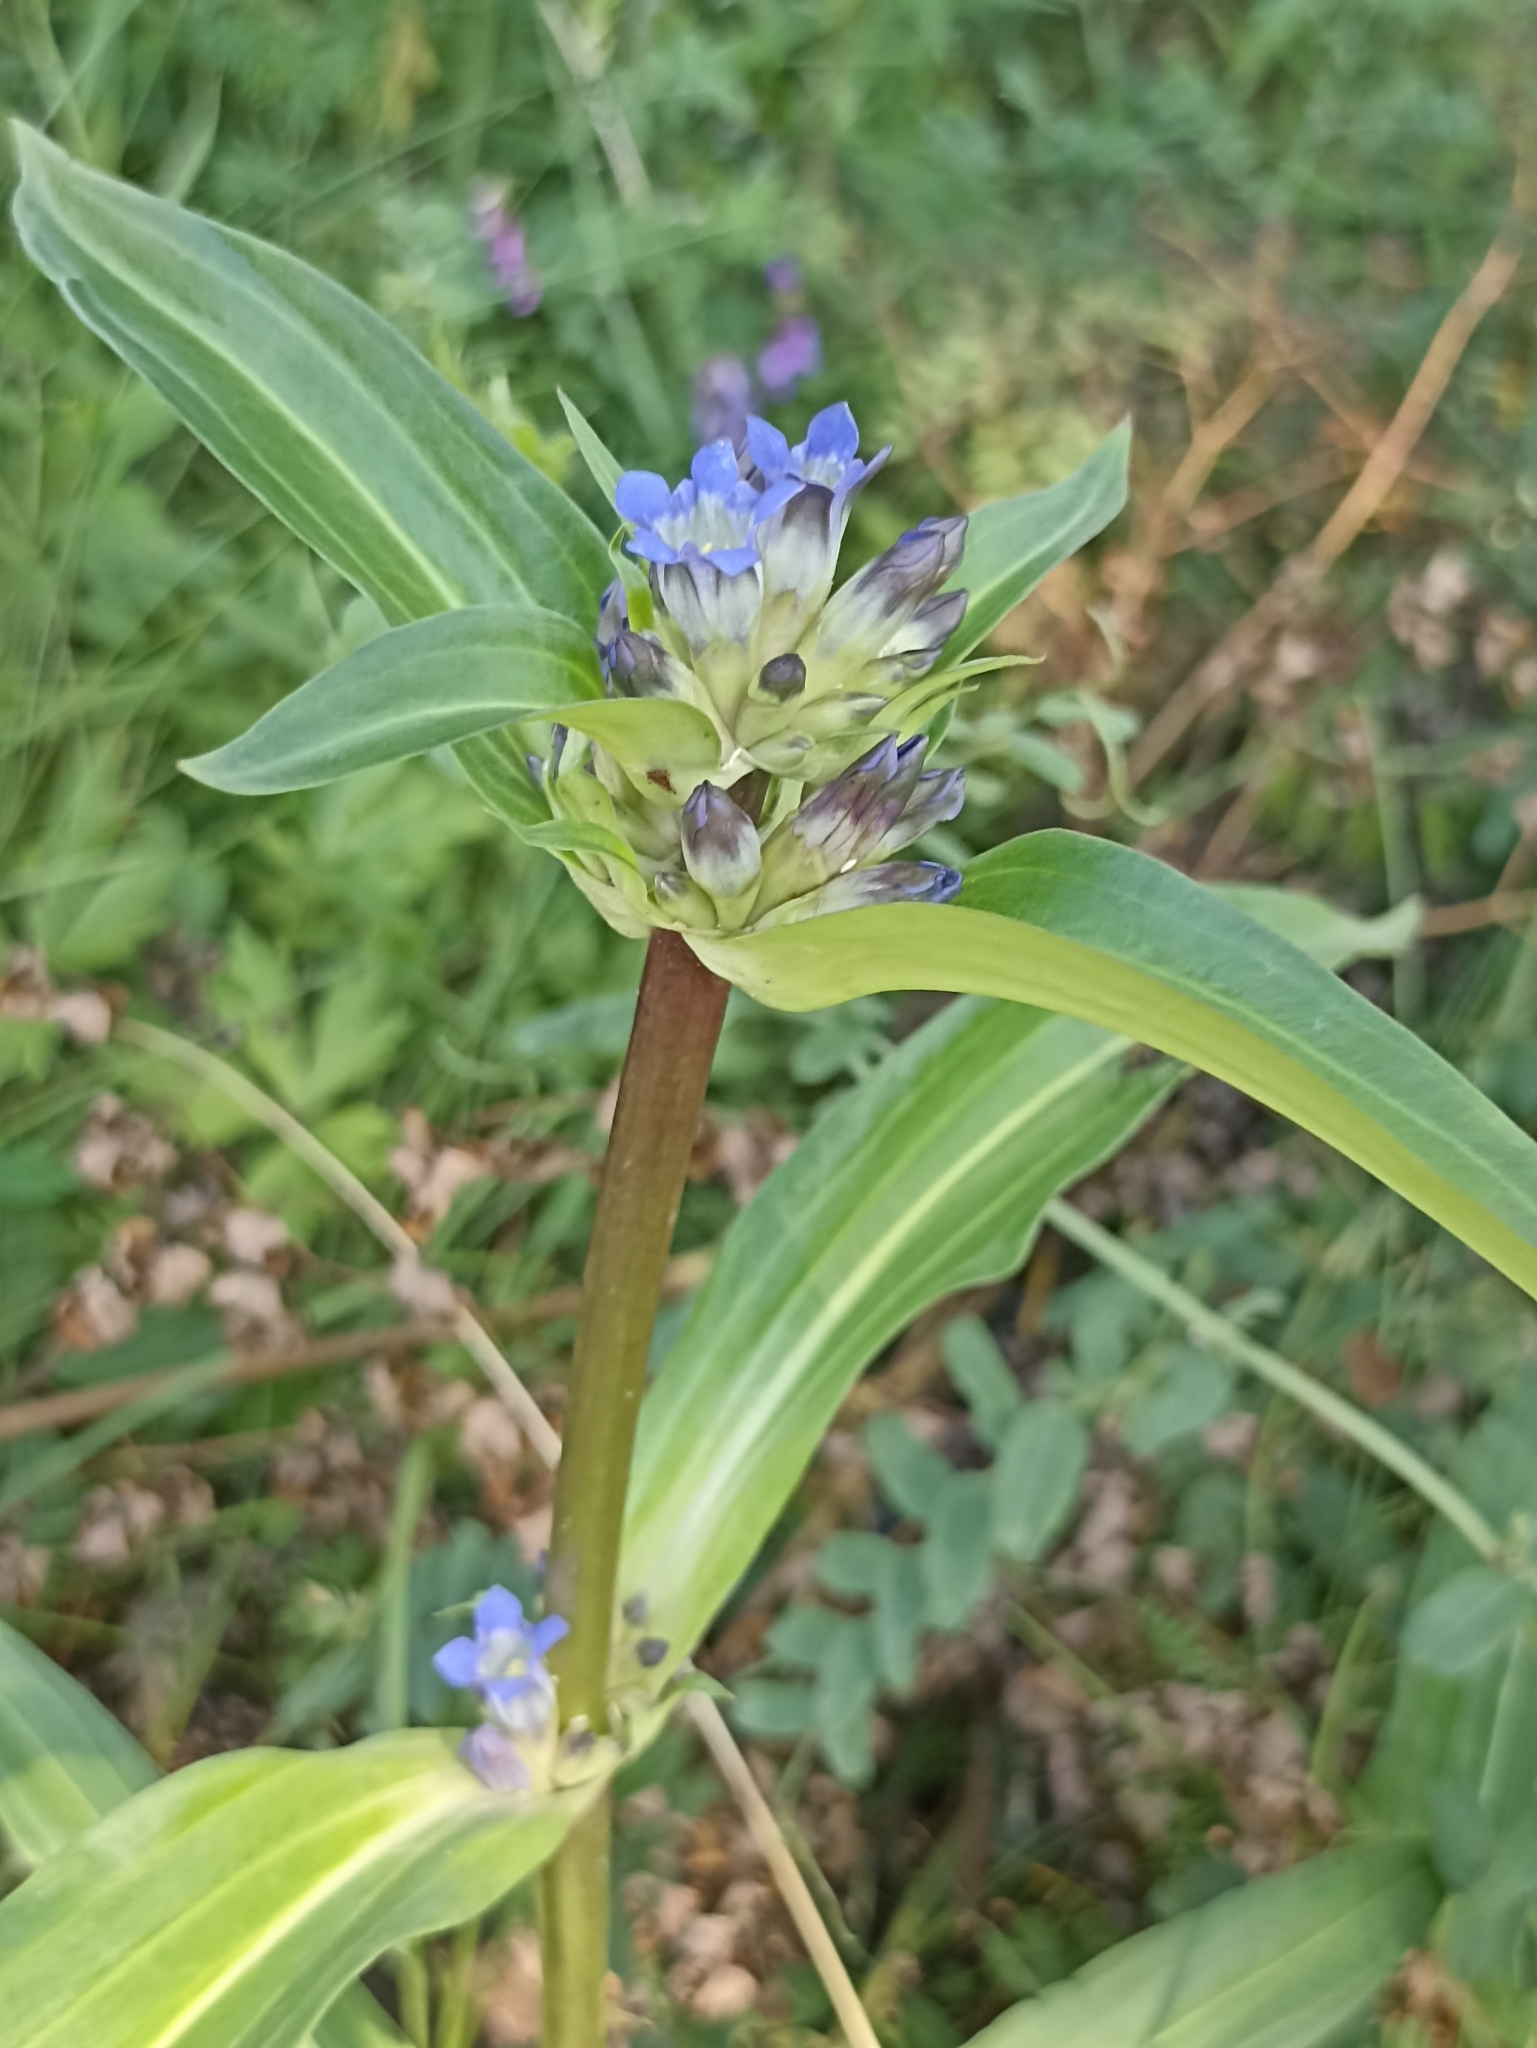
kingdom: Plantae
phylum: Tracheophyta
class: Magnoliopsida
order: Gentianales
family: Gentianaceae
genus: Gentiana
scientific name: Gentiana macrophylla
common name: Large-leaf gentian
